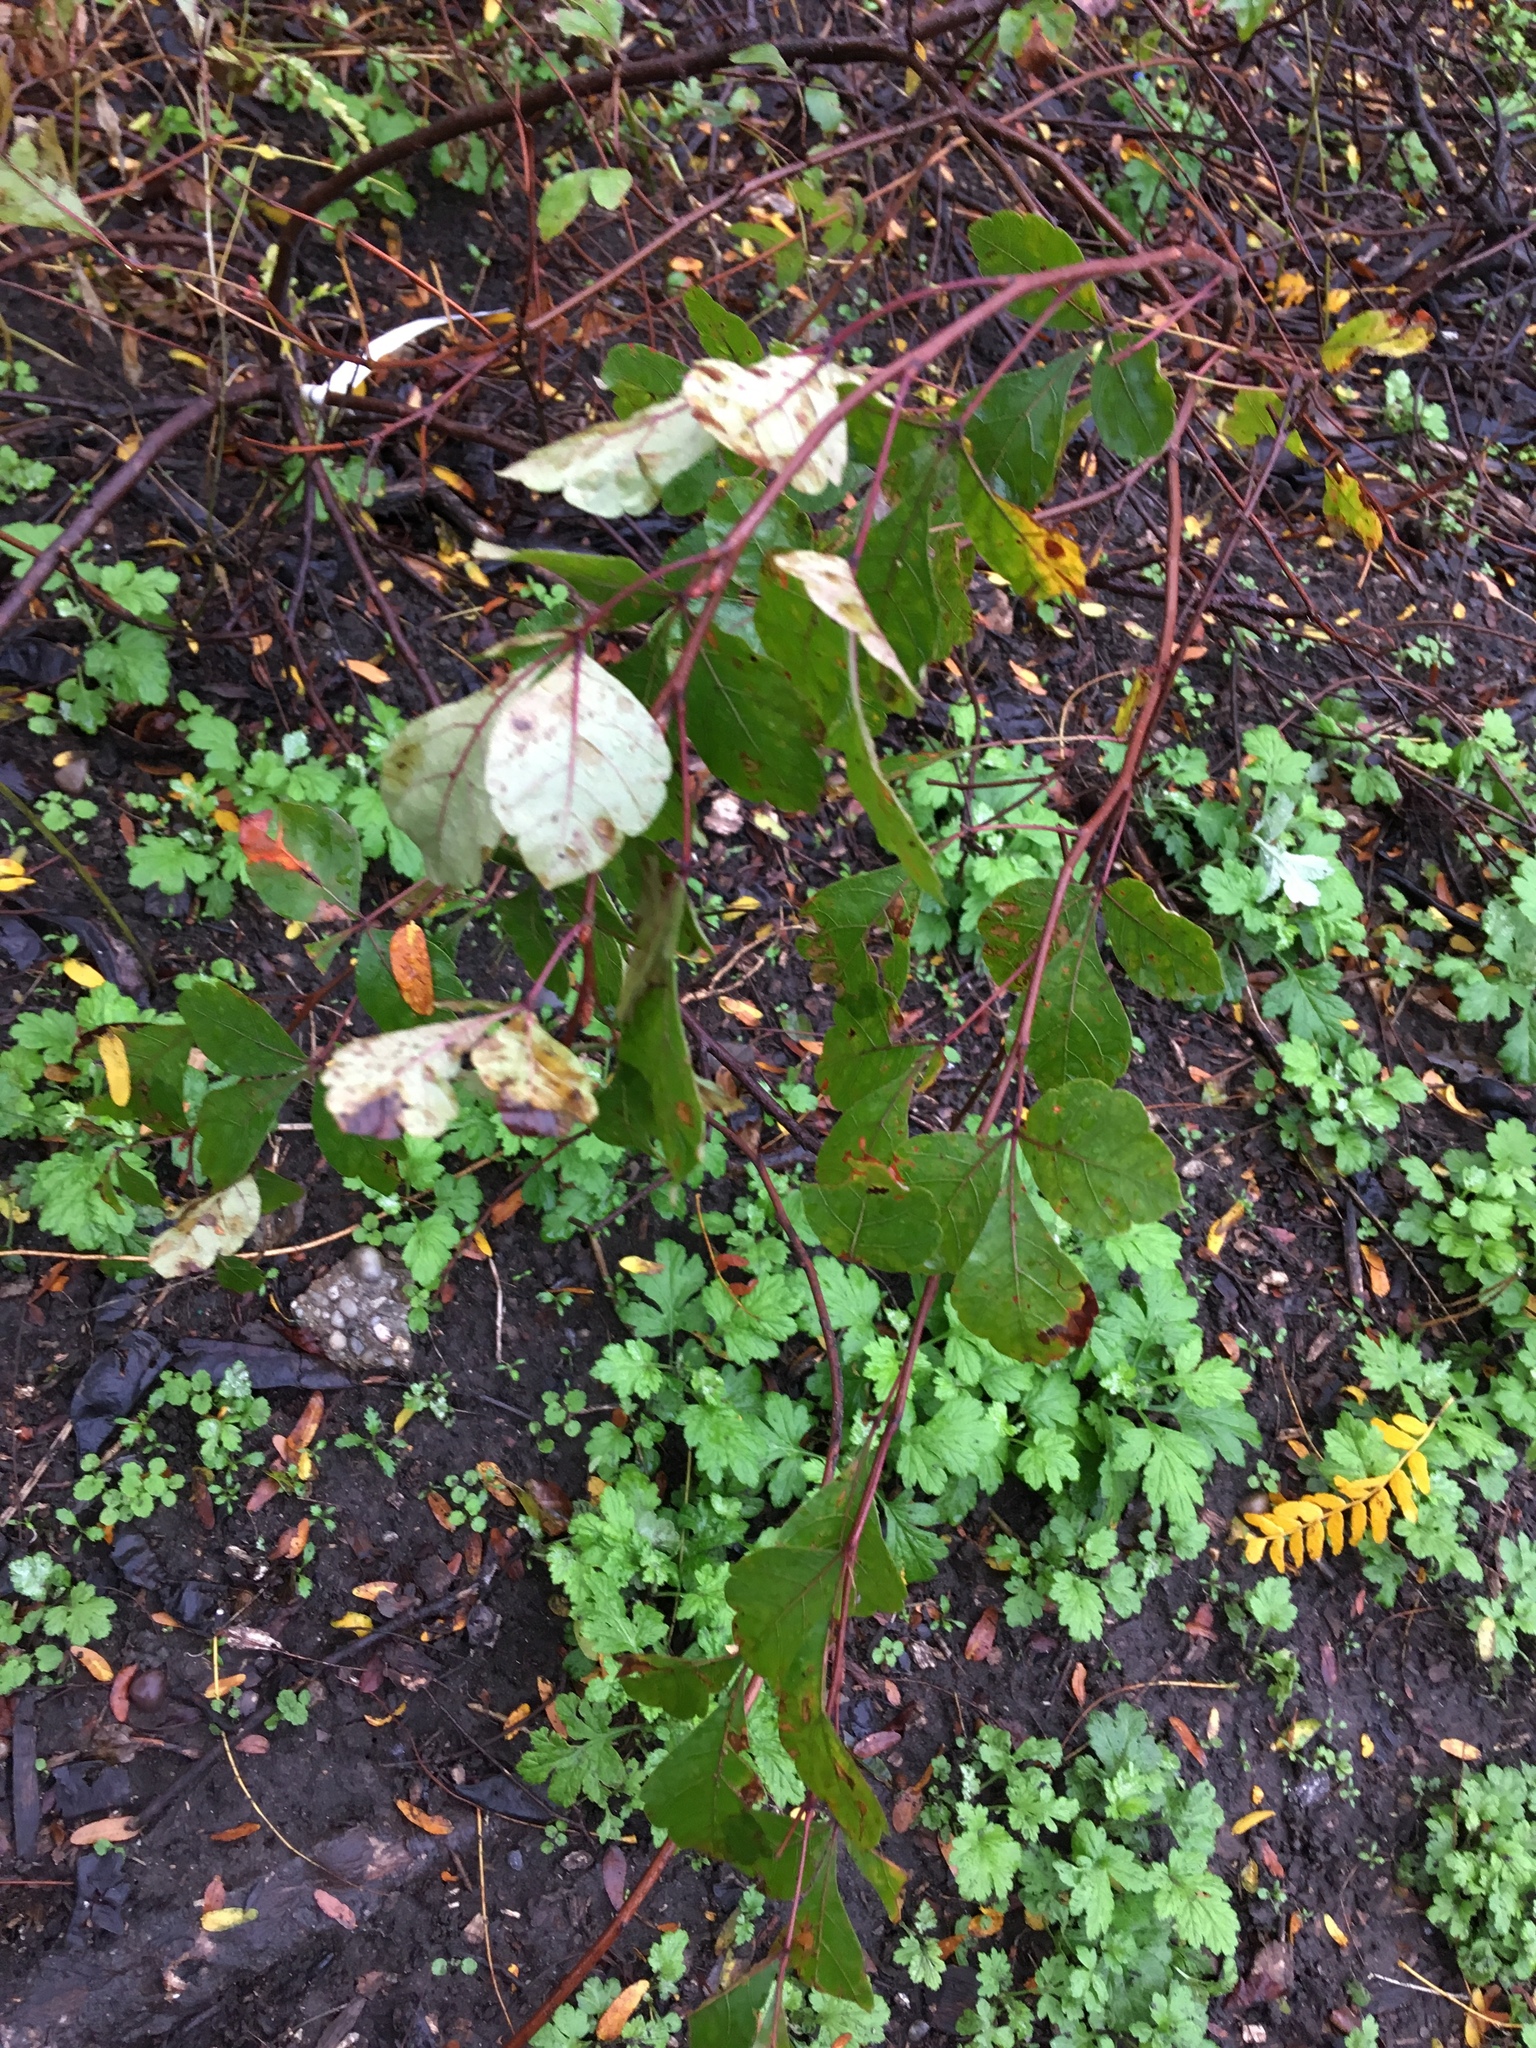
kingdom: Plantae
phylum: Tracheophyta
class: Magnoliopsida
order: Sapindales
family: Anacardiaceae
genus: Rhus
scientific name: Rhus aromatica
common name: Aromatic sumac
